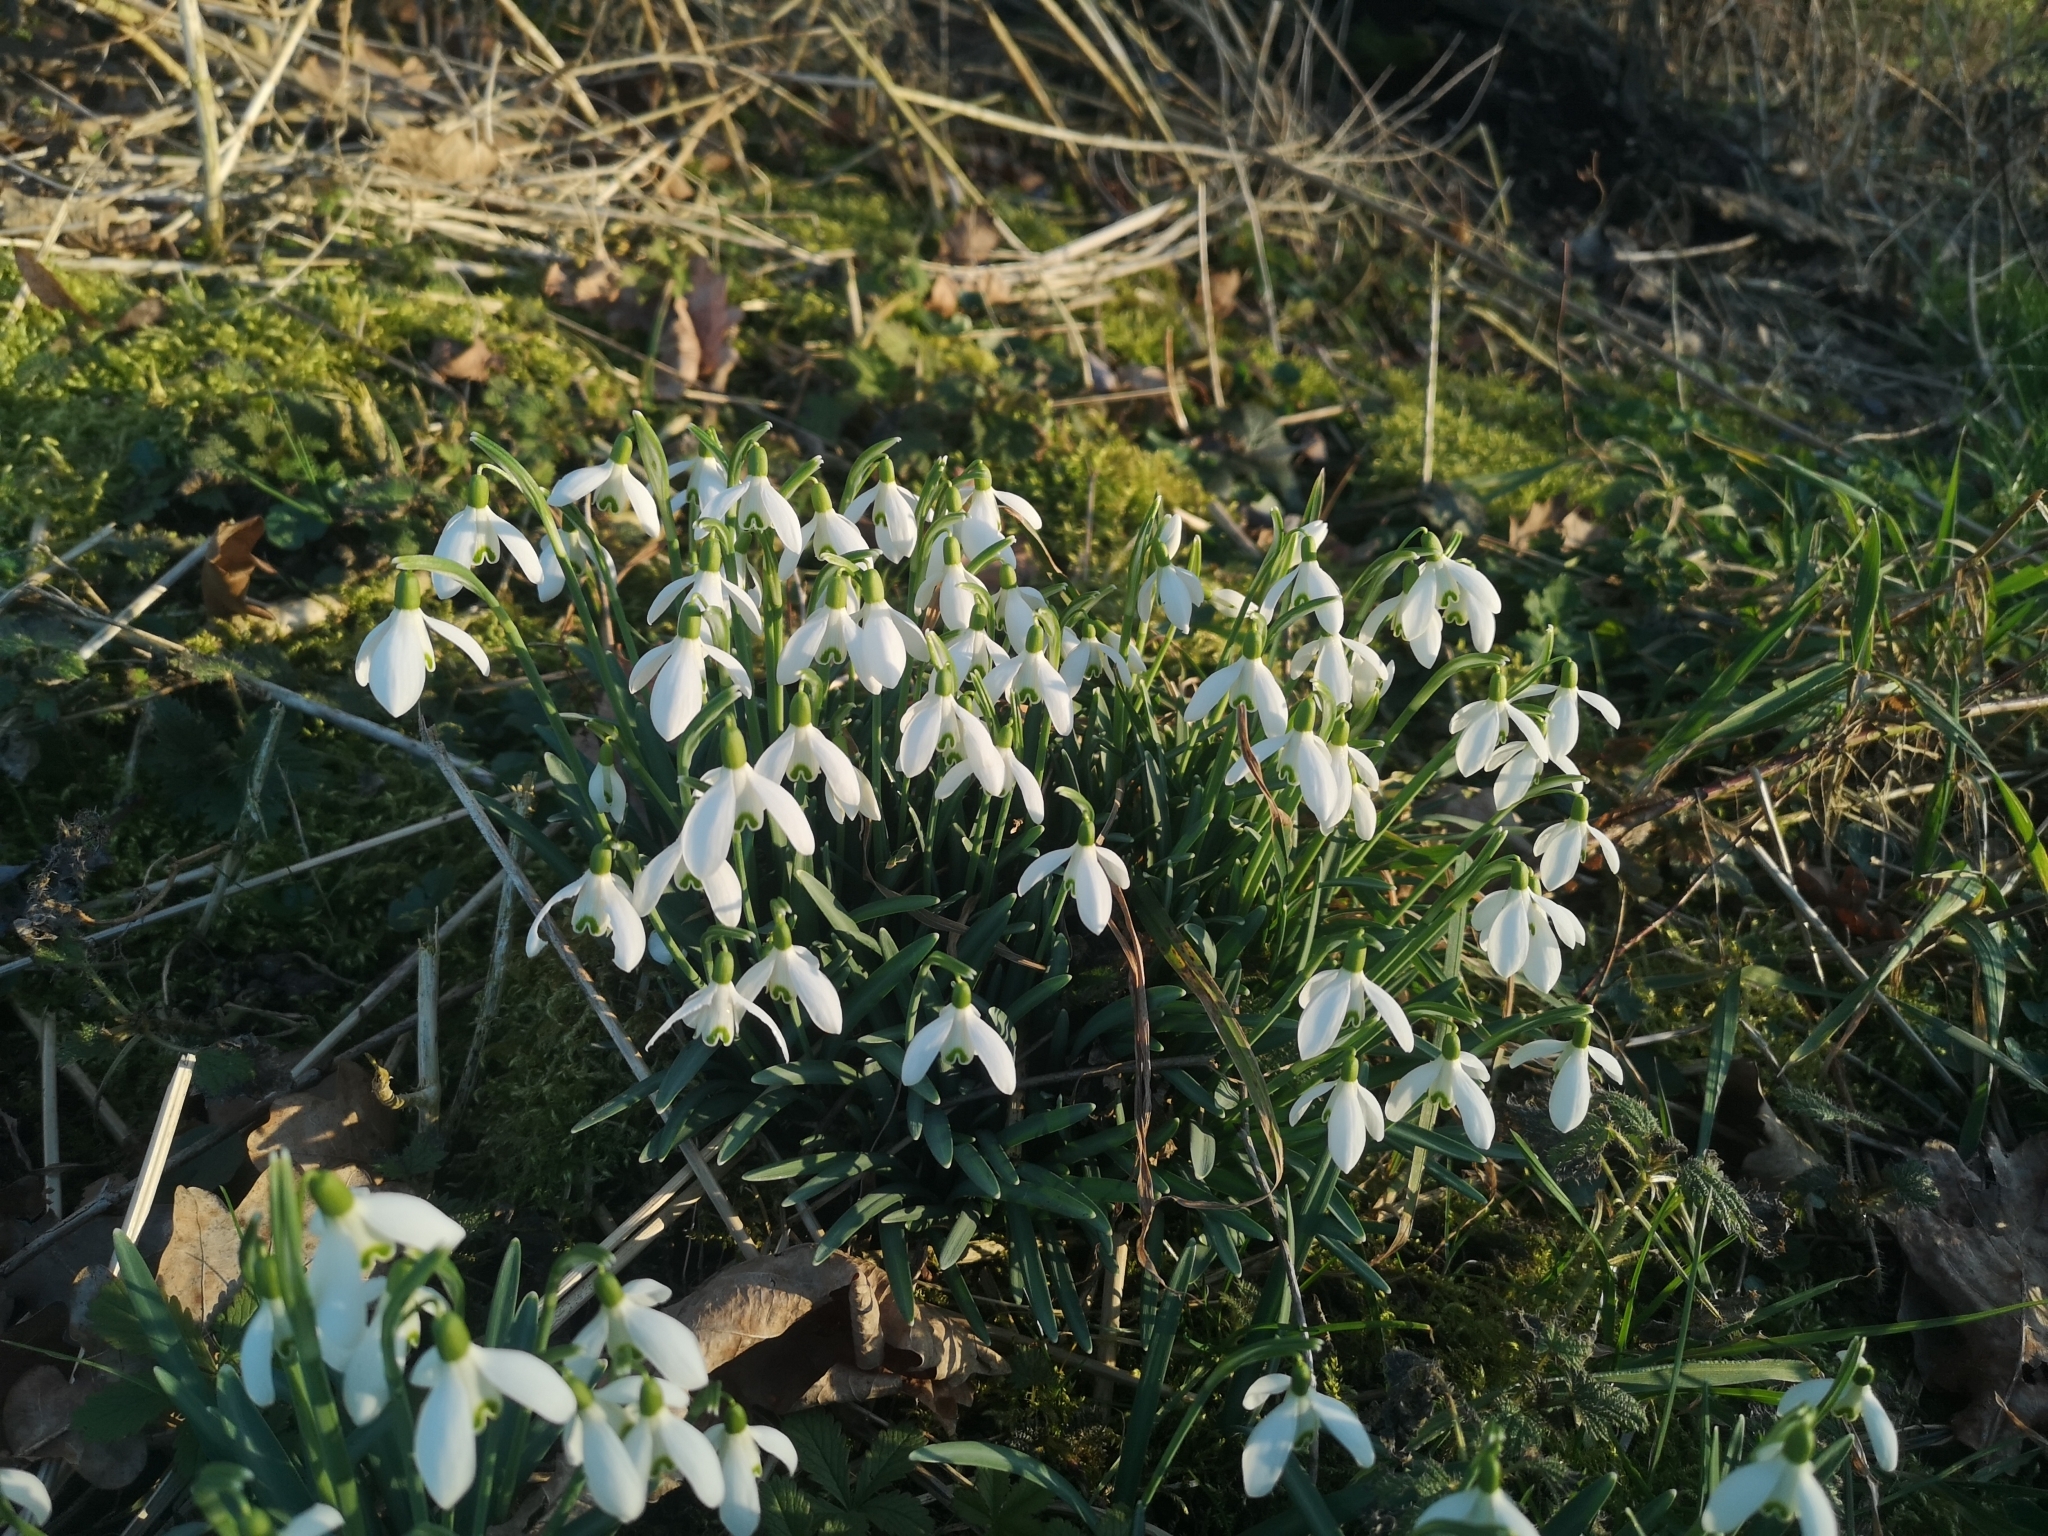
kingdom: Plantae
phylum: Tracheophyta
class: Liliopsida
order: Asparagales
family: Amaryllidaceae
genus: Galanthus
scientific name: Galanthus nivalis
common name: Snowdrop
